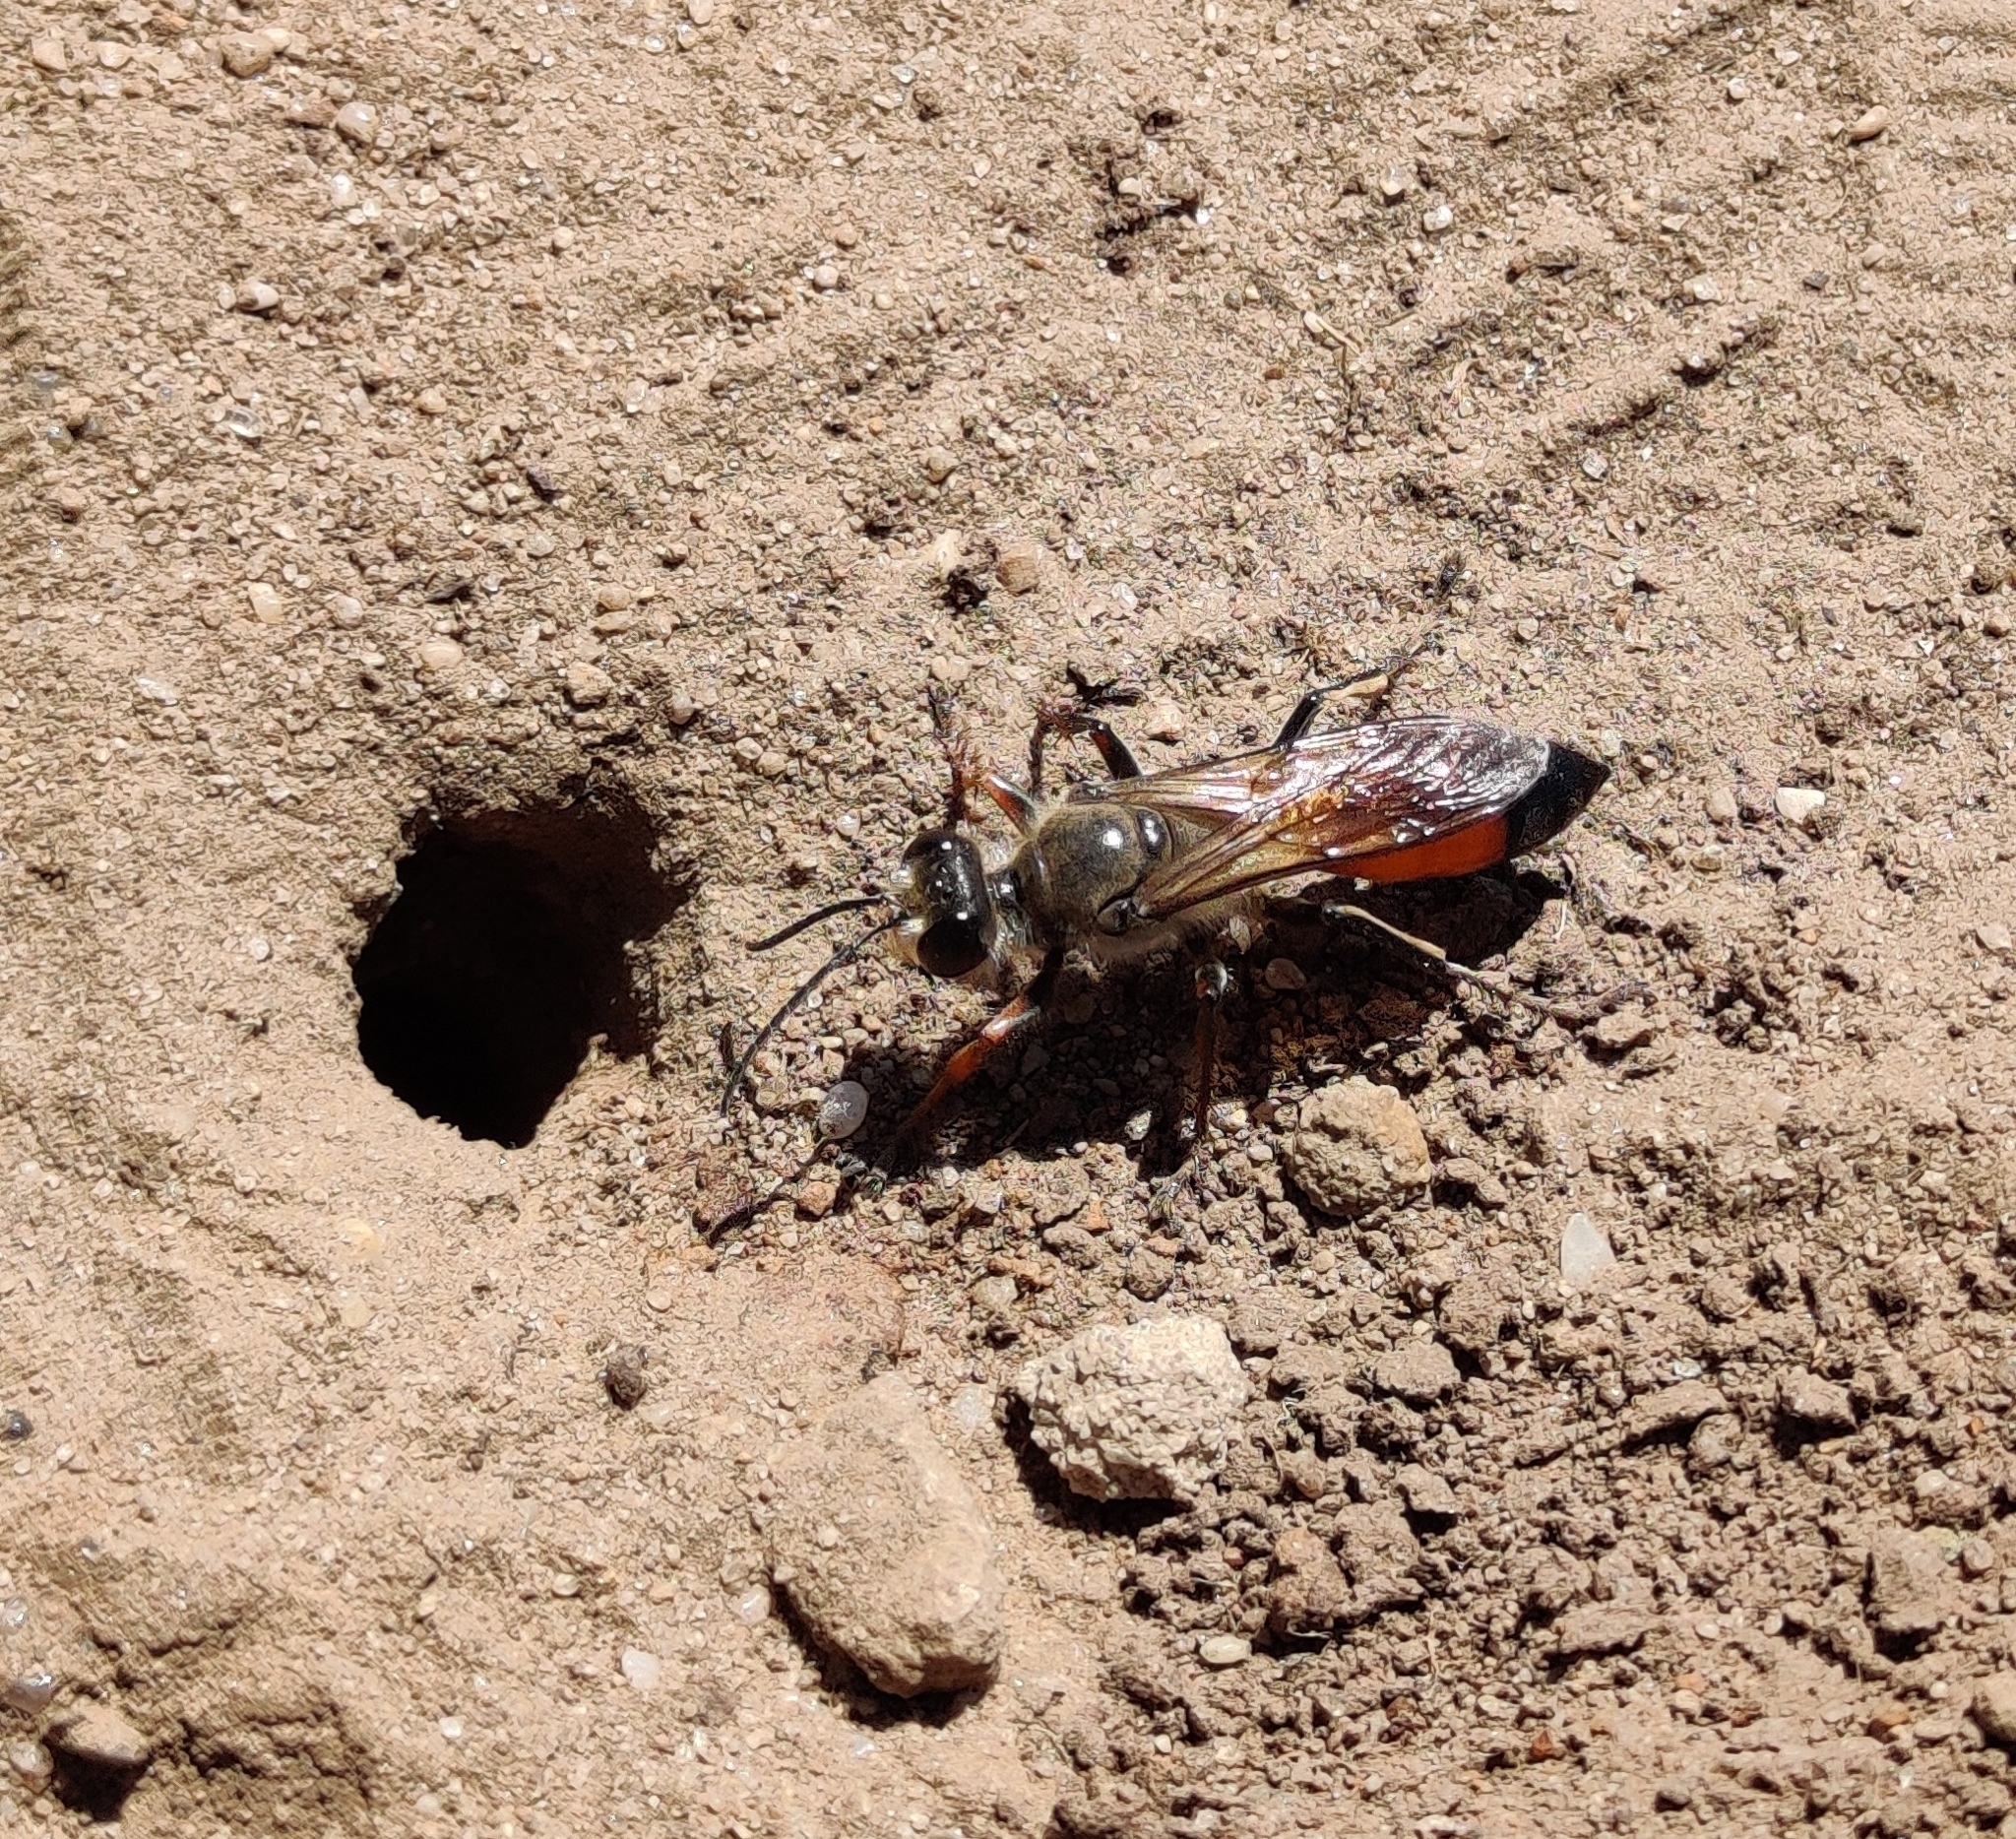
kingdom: Animalia
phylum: Arthropoda
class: Insecta
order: Hymenoptera
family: Sphecidae
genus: Sphex
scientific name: Sphex funerarius
